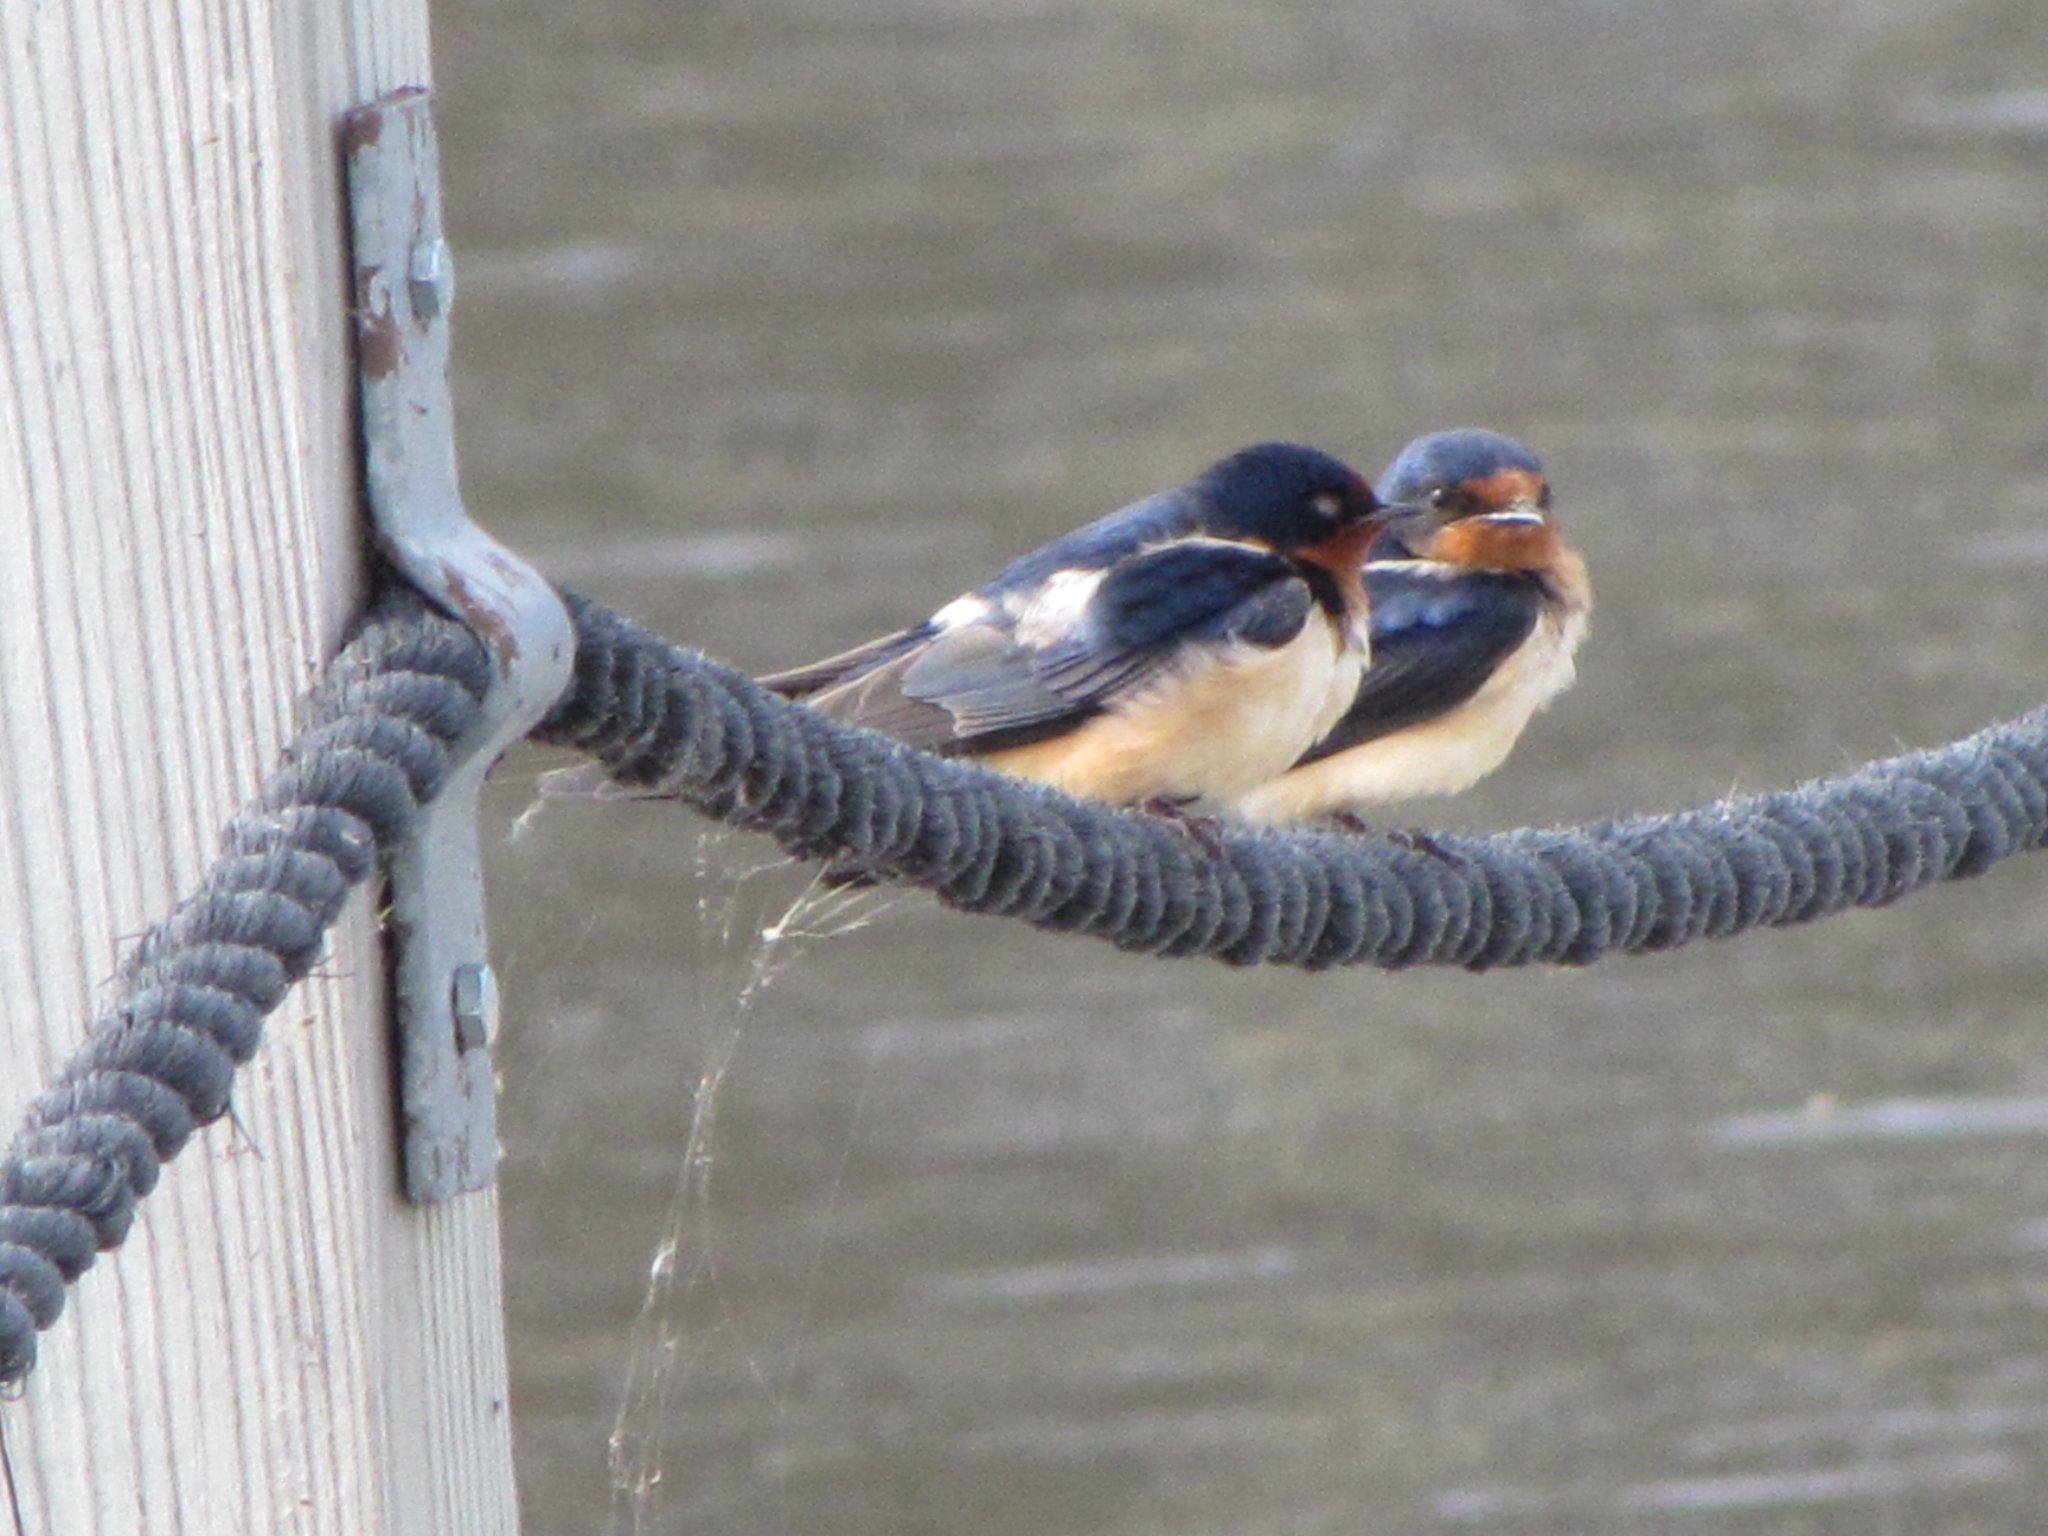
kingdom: Animalia
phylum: Chordata
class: Aves
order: Passeriformes
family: Hirundinidae
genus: Hirundo
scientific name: Hirundo rustica
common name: Barn swallow
